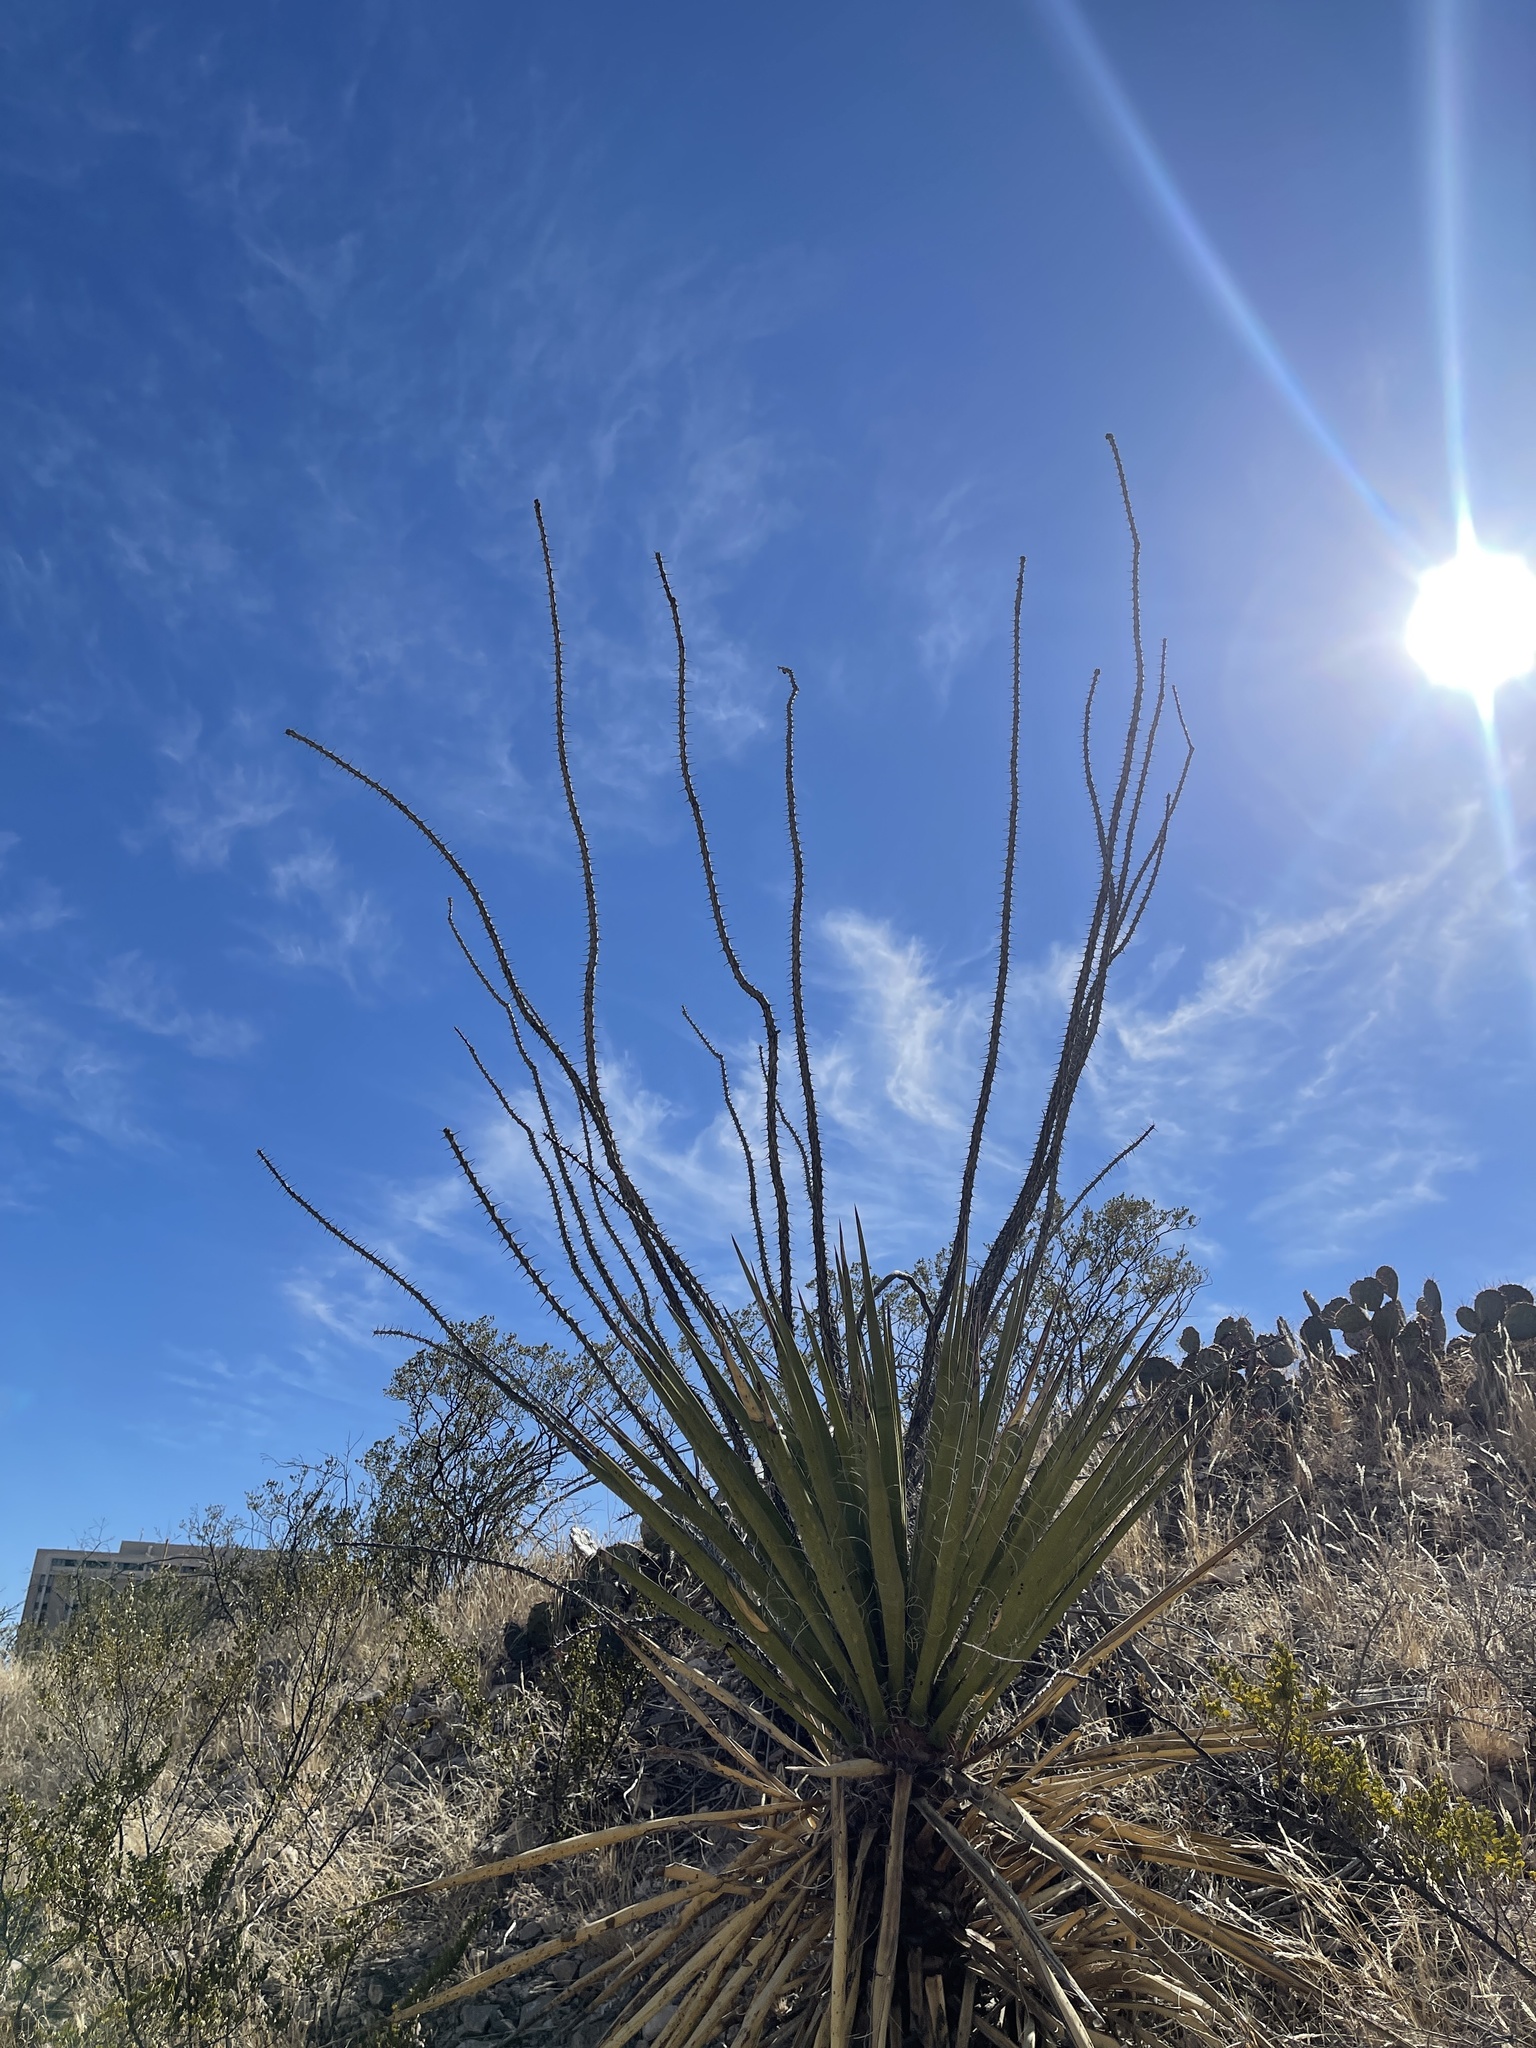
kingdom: Plantae
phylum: Tracheophyta
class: Magnoliopsida
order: Ericales
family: Fouquieriaceae
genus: Fouquieria
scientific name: Fouquieria splendens
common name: Vine-cactus
